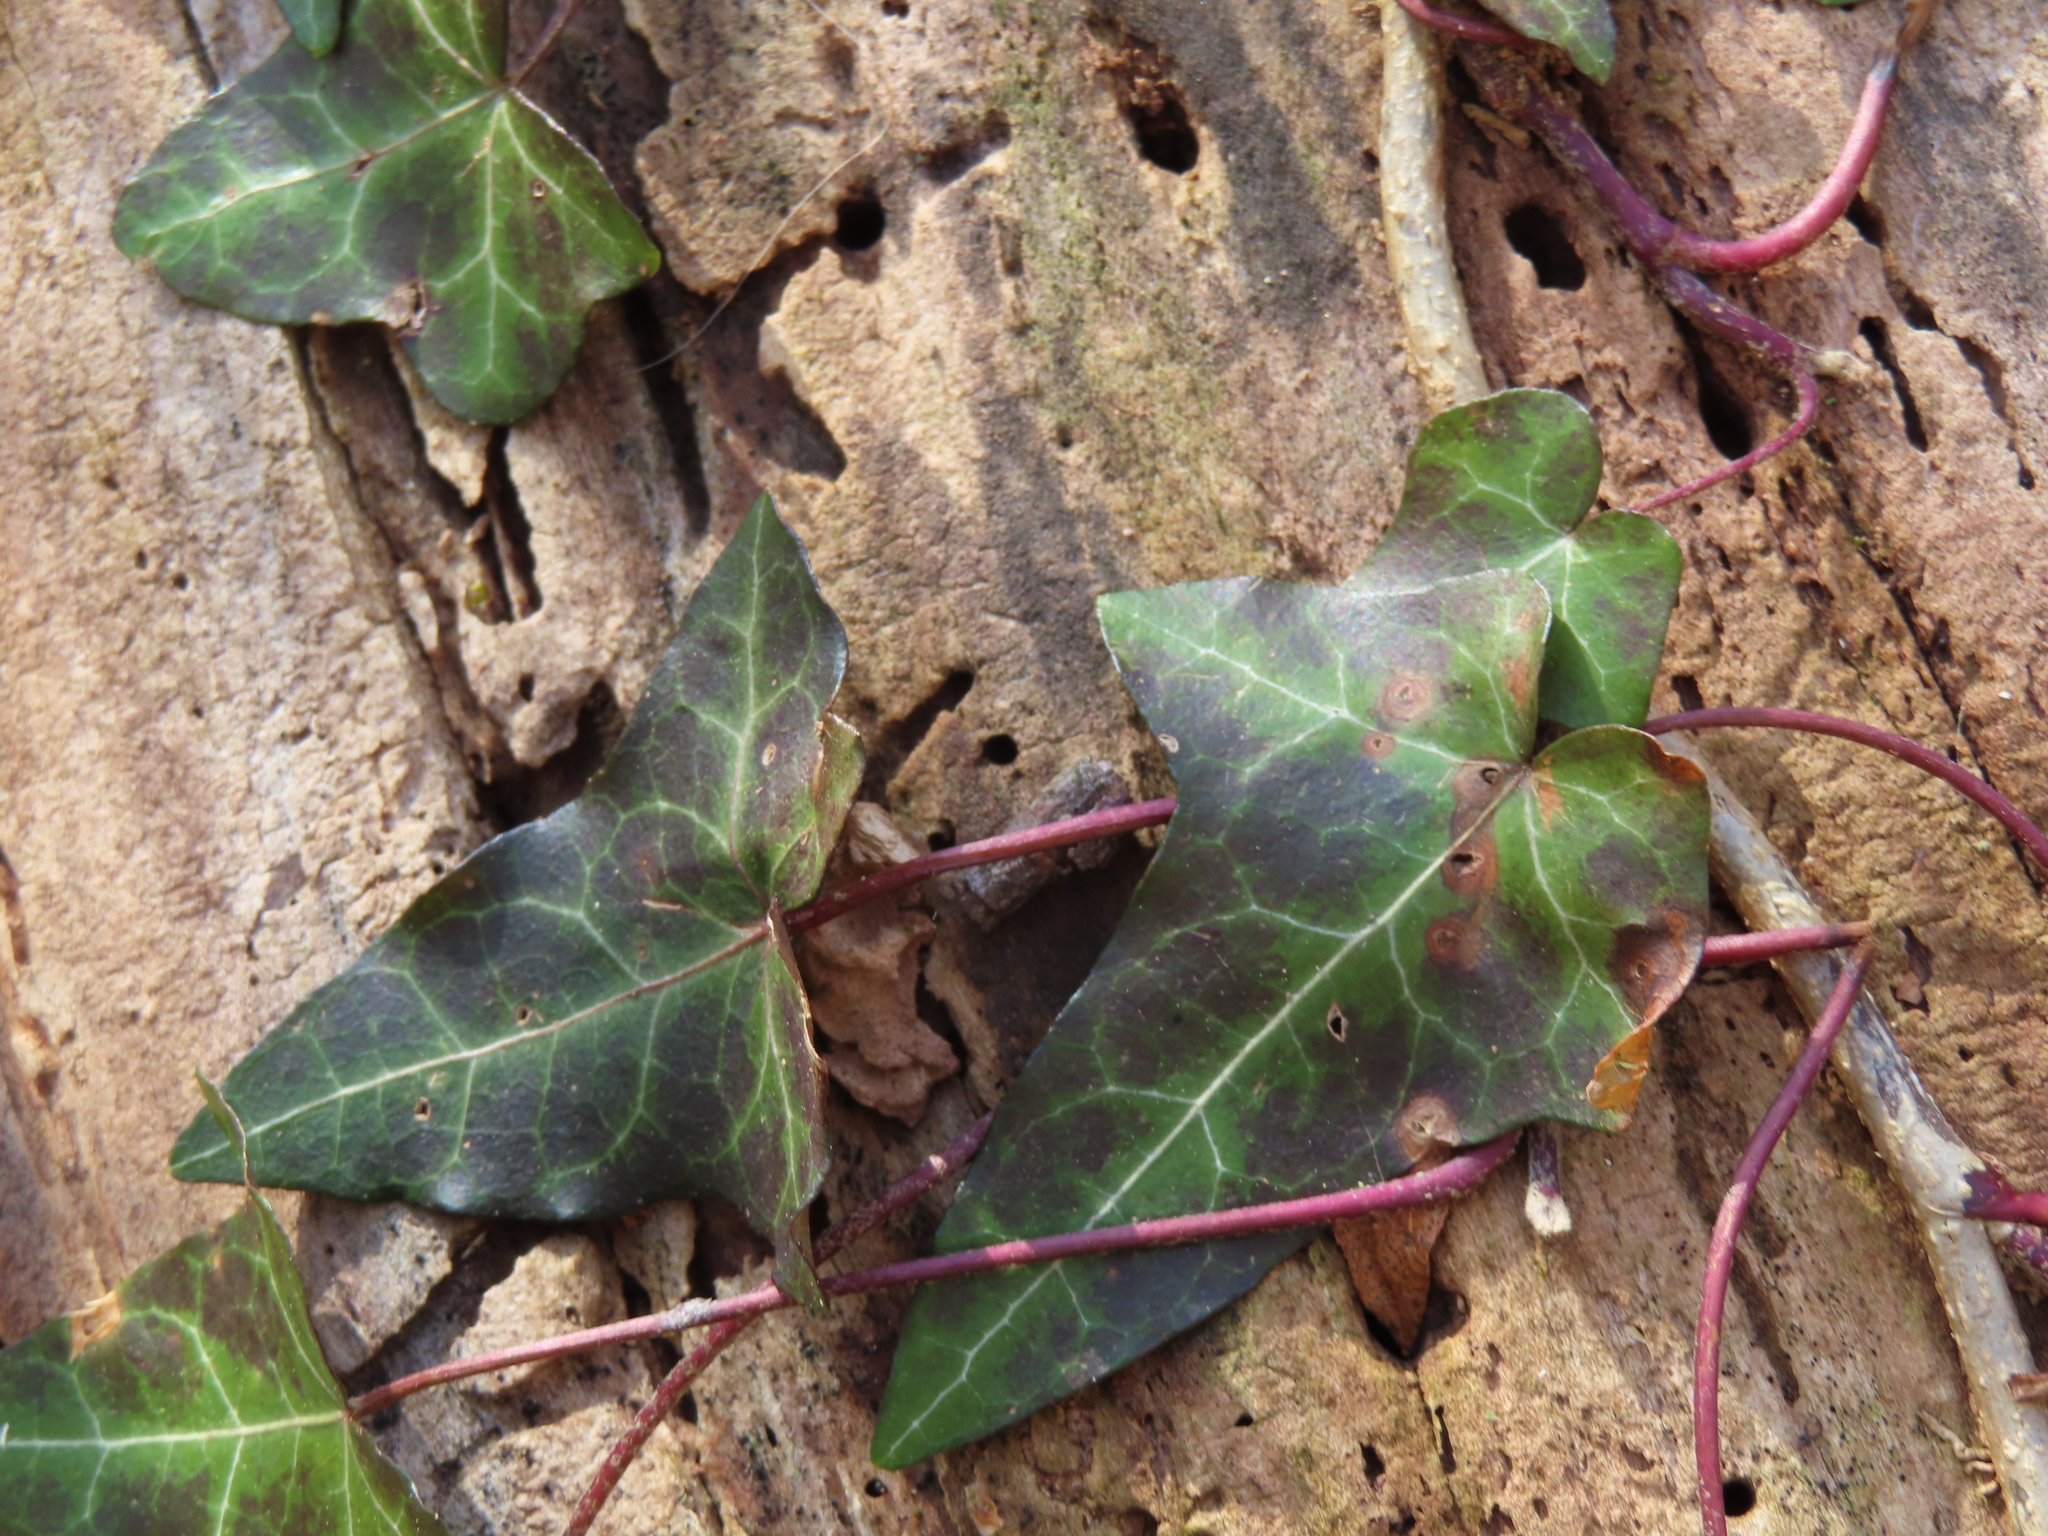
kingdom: Plantae
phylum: Tracheophyta
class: Magnoliopsida
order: Apiales
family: Araliaceae
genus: Hedera
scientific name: Hedera helix
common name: Ivy
